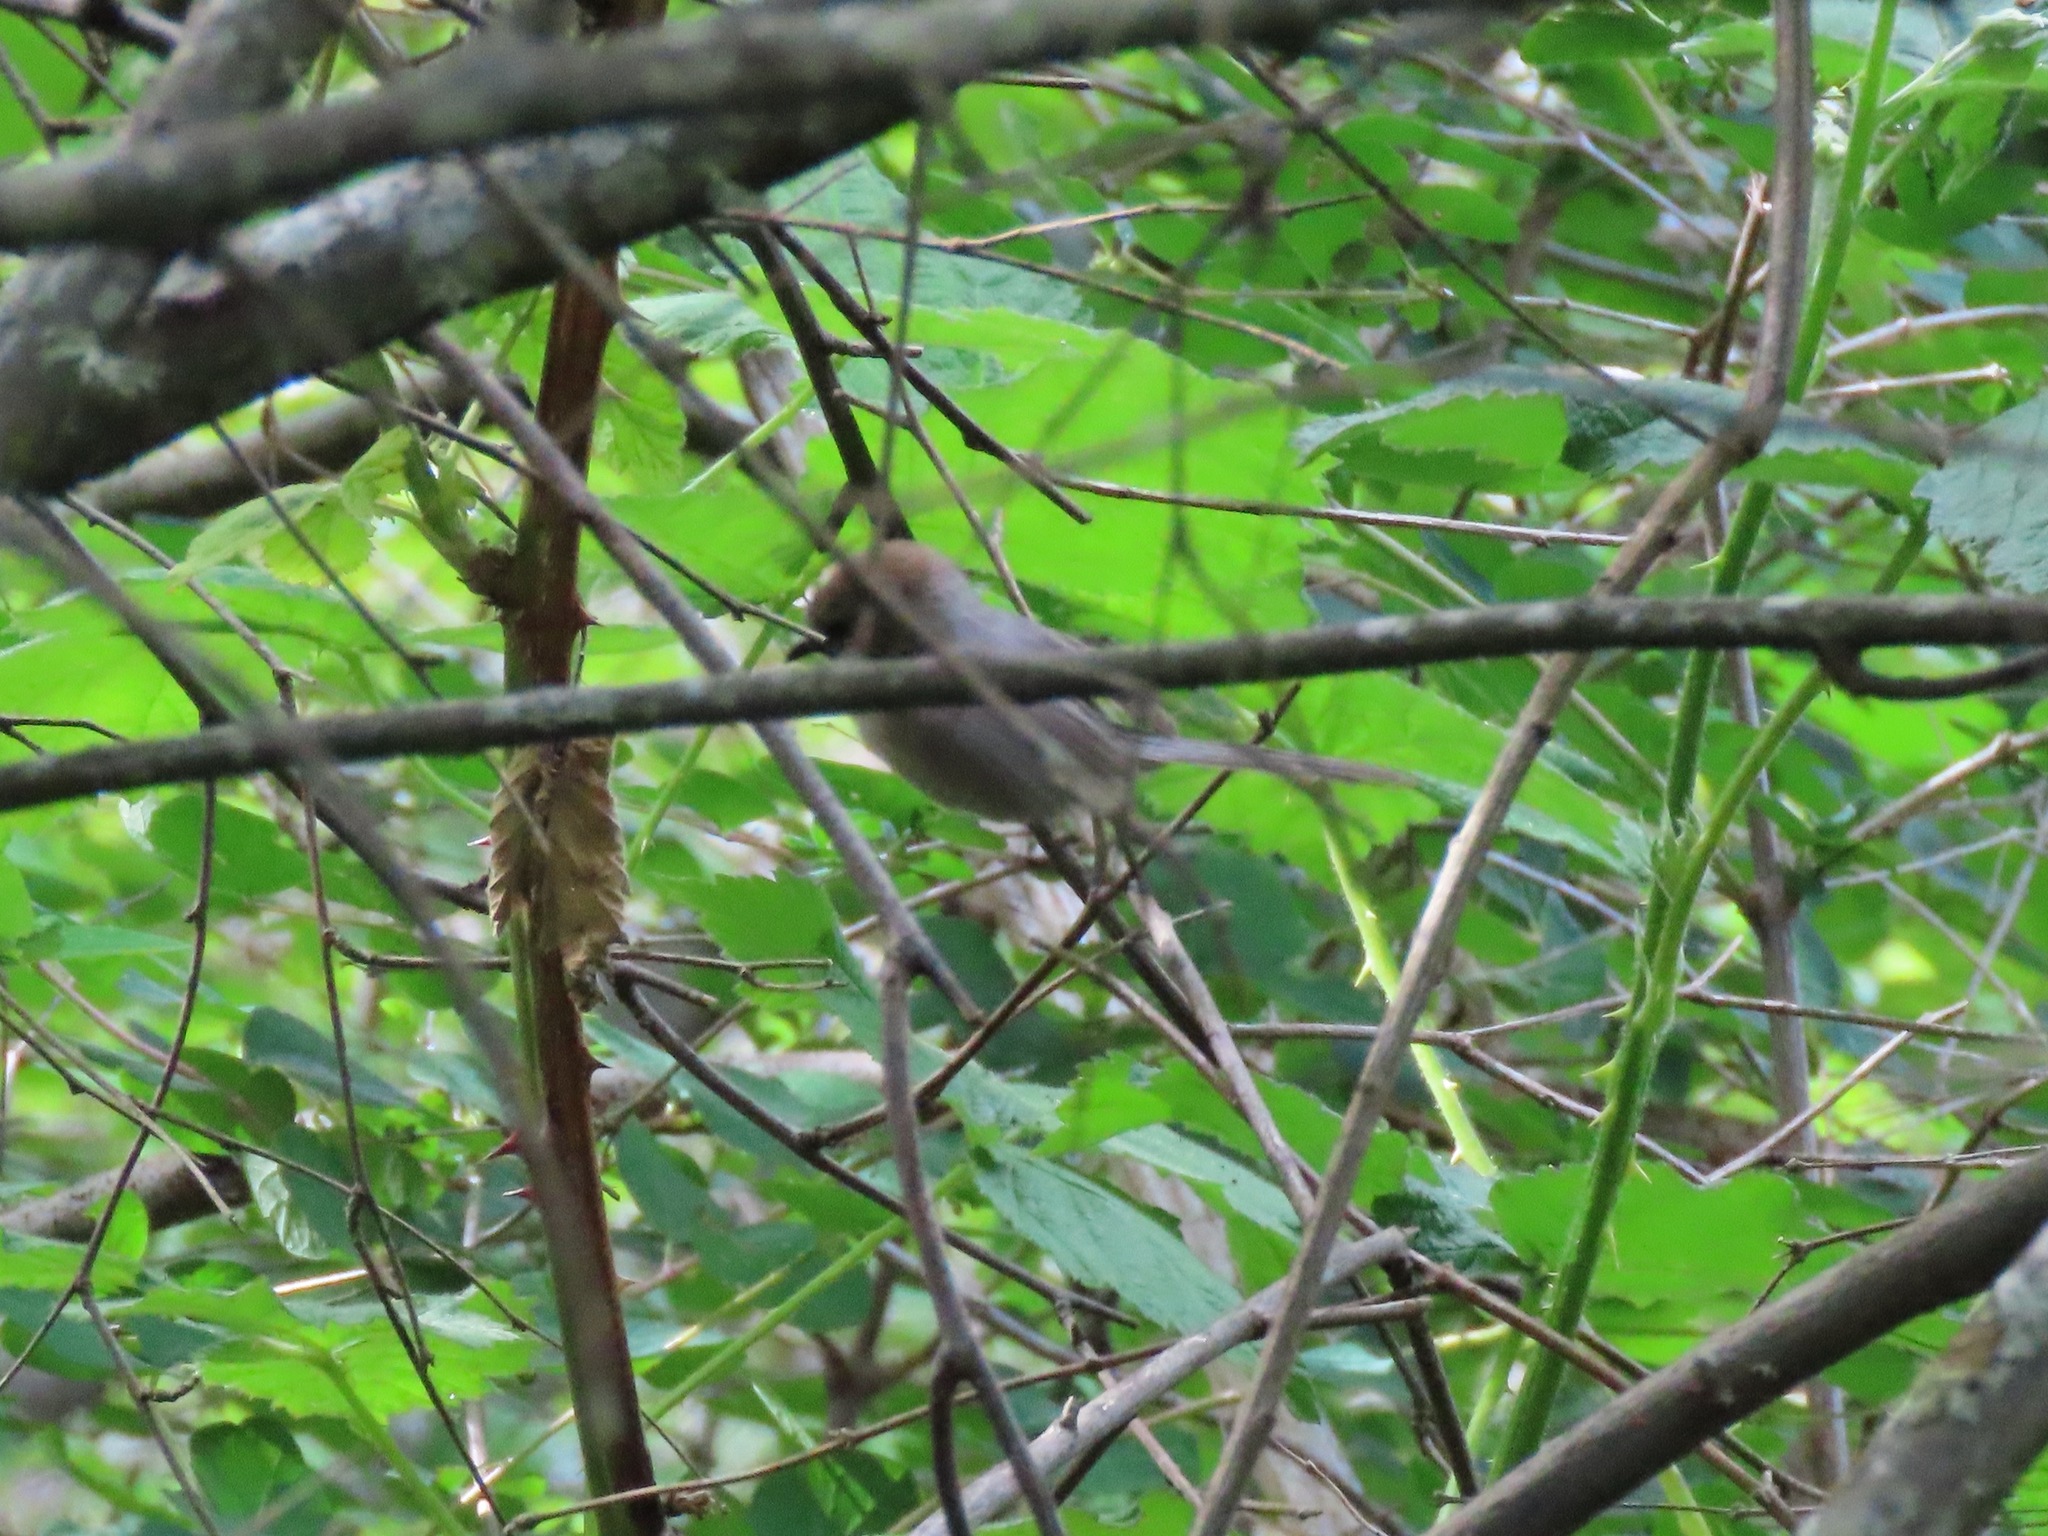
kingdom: Animalia
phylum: Chordata
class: Aves
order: Passeriformes
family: Aegithalidae
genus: Psaltriparus
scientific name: Psaltriparus minimus
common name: American bushtit
